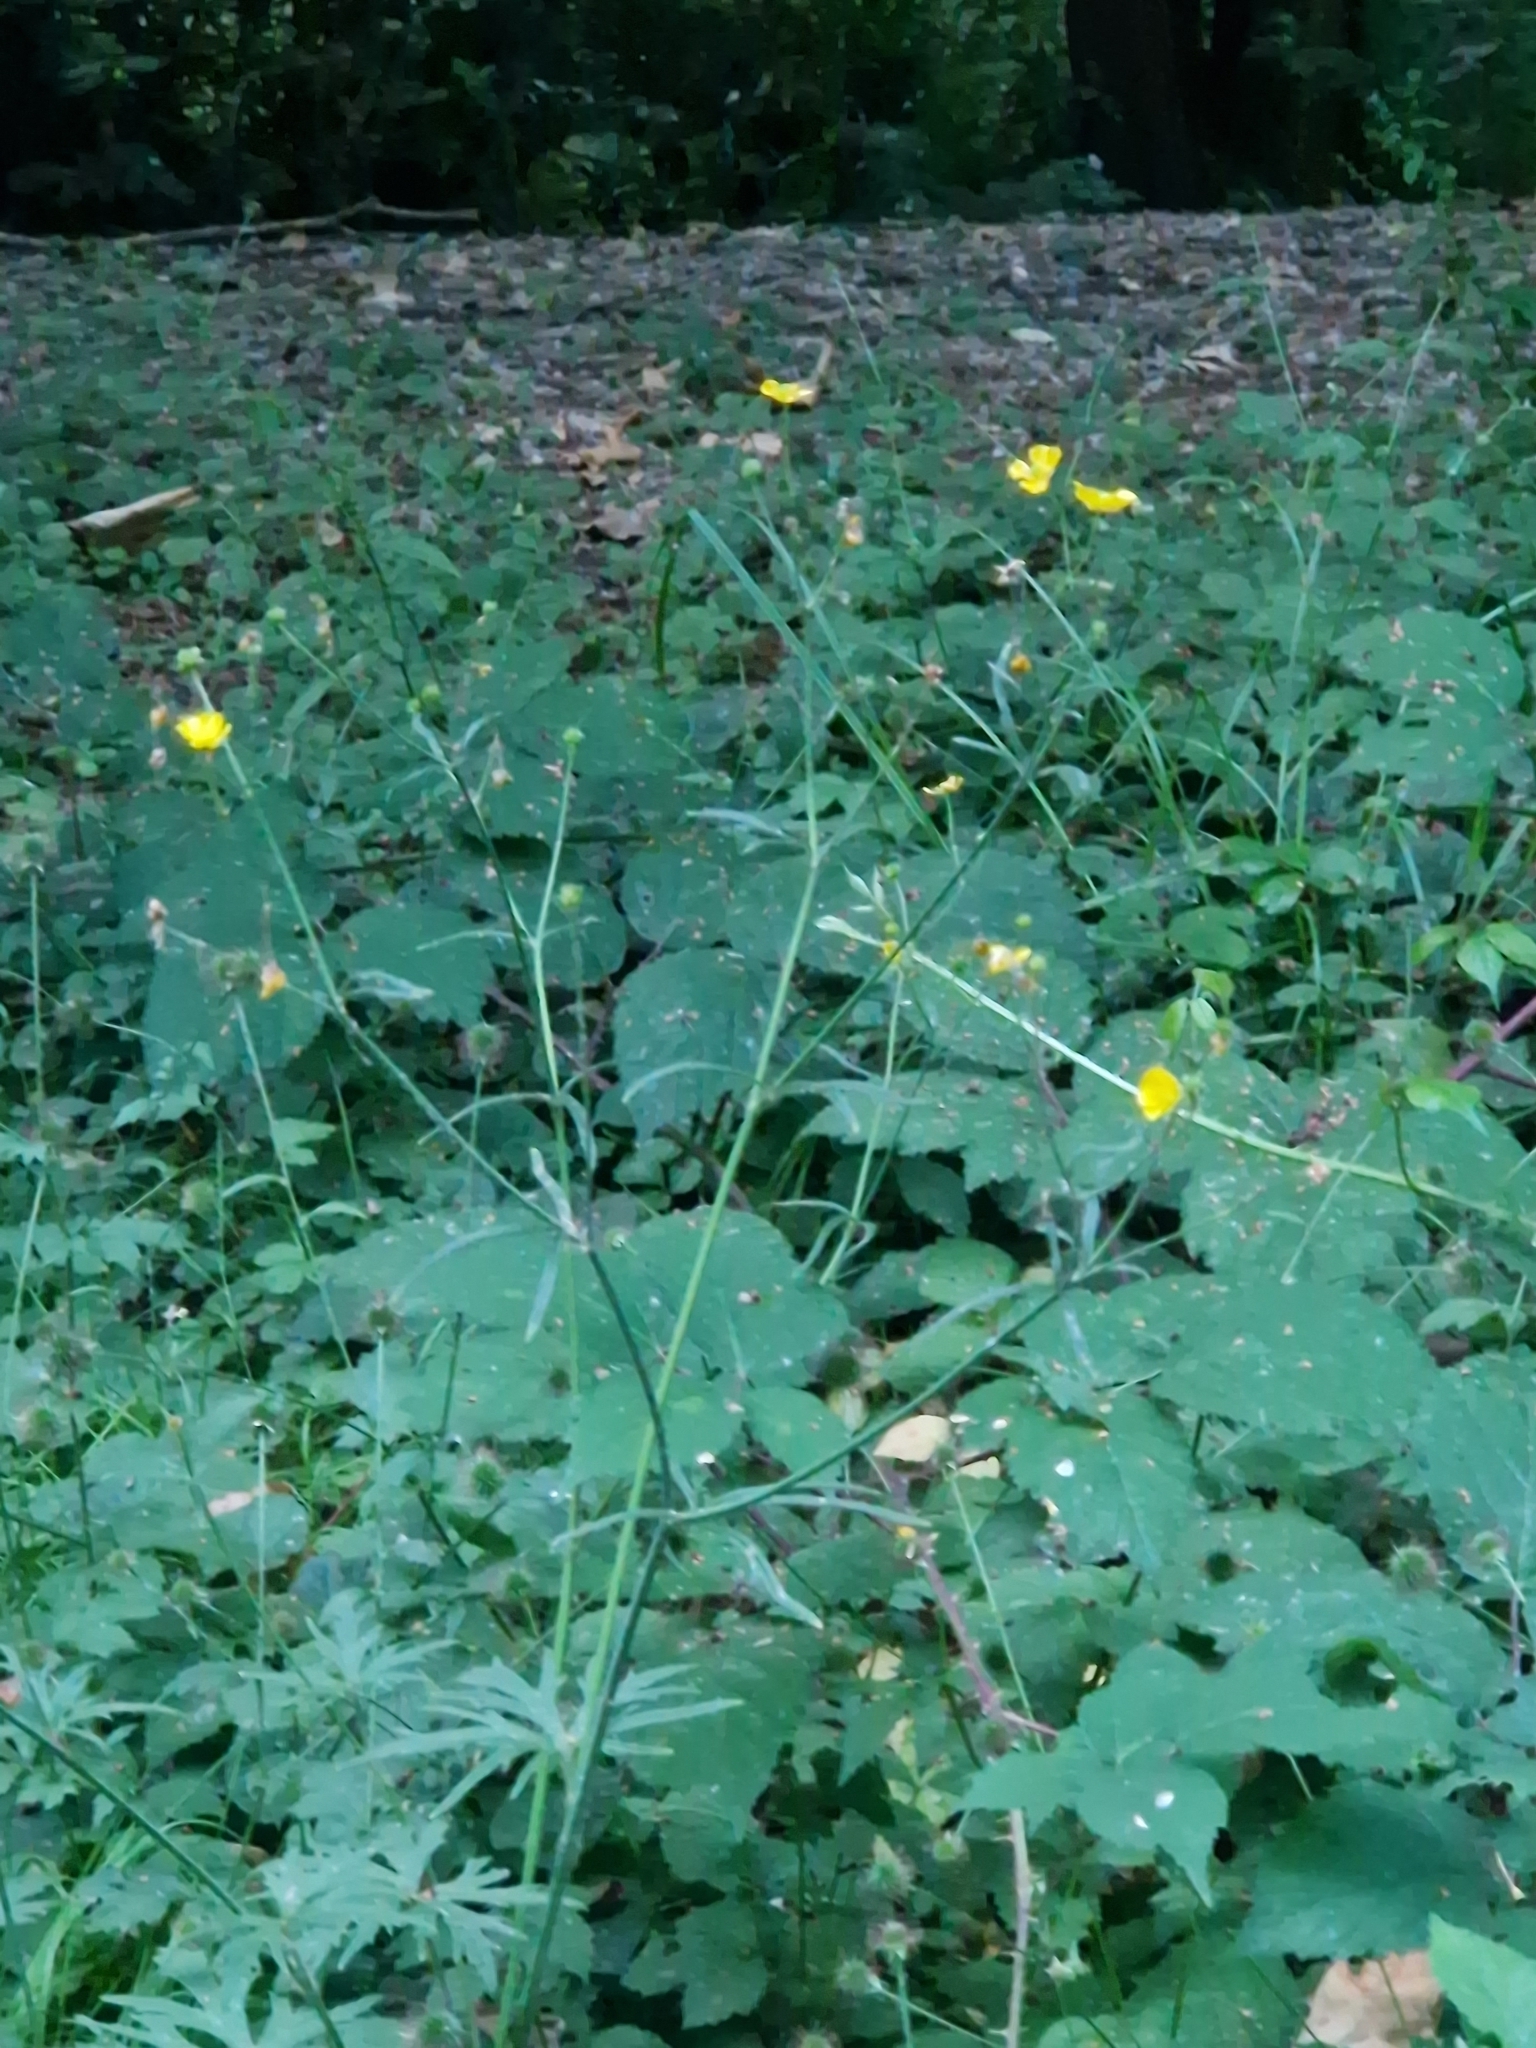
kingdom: Plantae
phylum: Tracheophyta
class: Magnoliopsida
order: Ranunculales
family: Ranunculaceae
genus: Ranunculus
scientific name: Ranunculus acris
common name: Meadow buttercup
